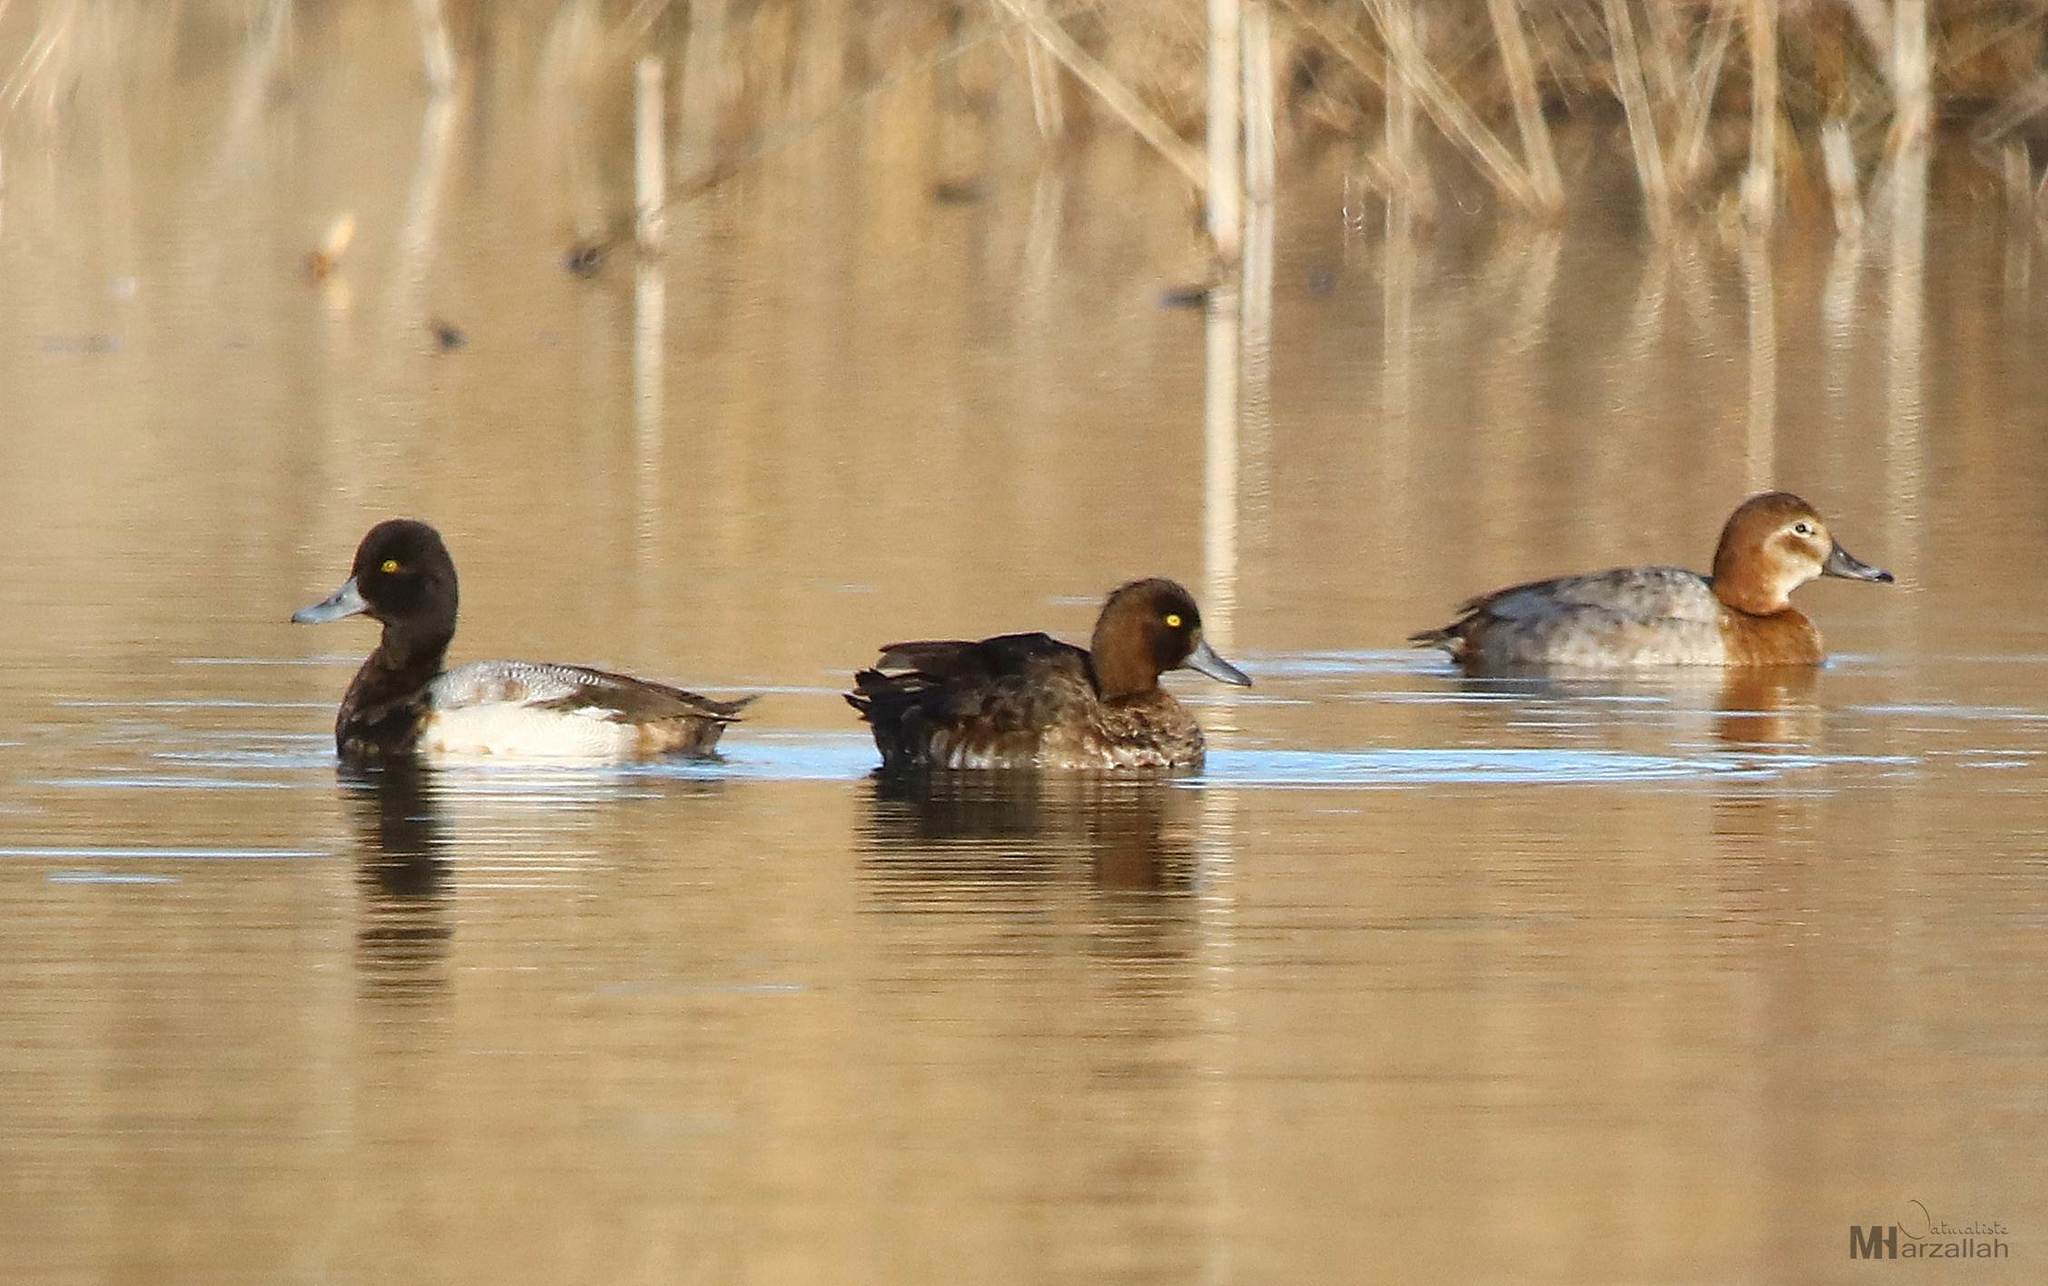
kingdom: Animalia
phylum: Chordata
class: Aves
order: Anseriformes
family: Anatidae
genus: Aythya
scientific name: Aythya affinis
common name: Lesser scaup
